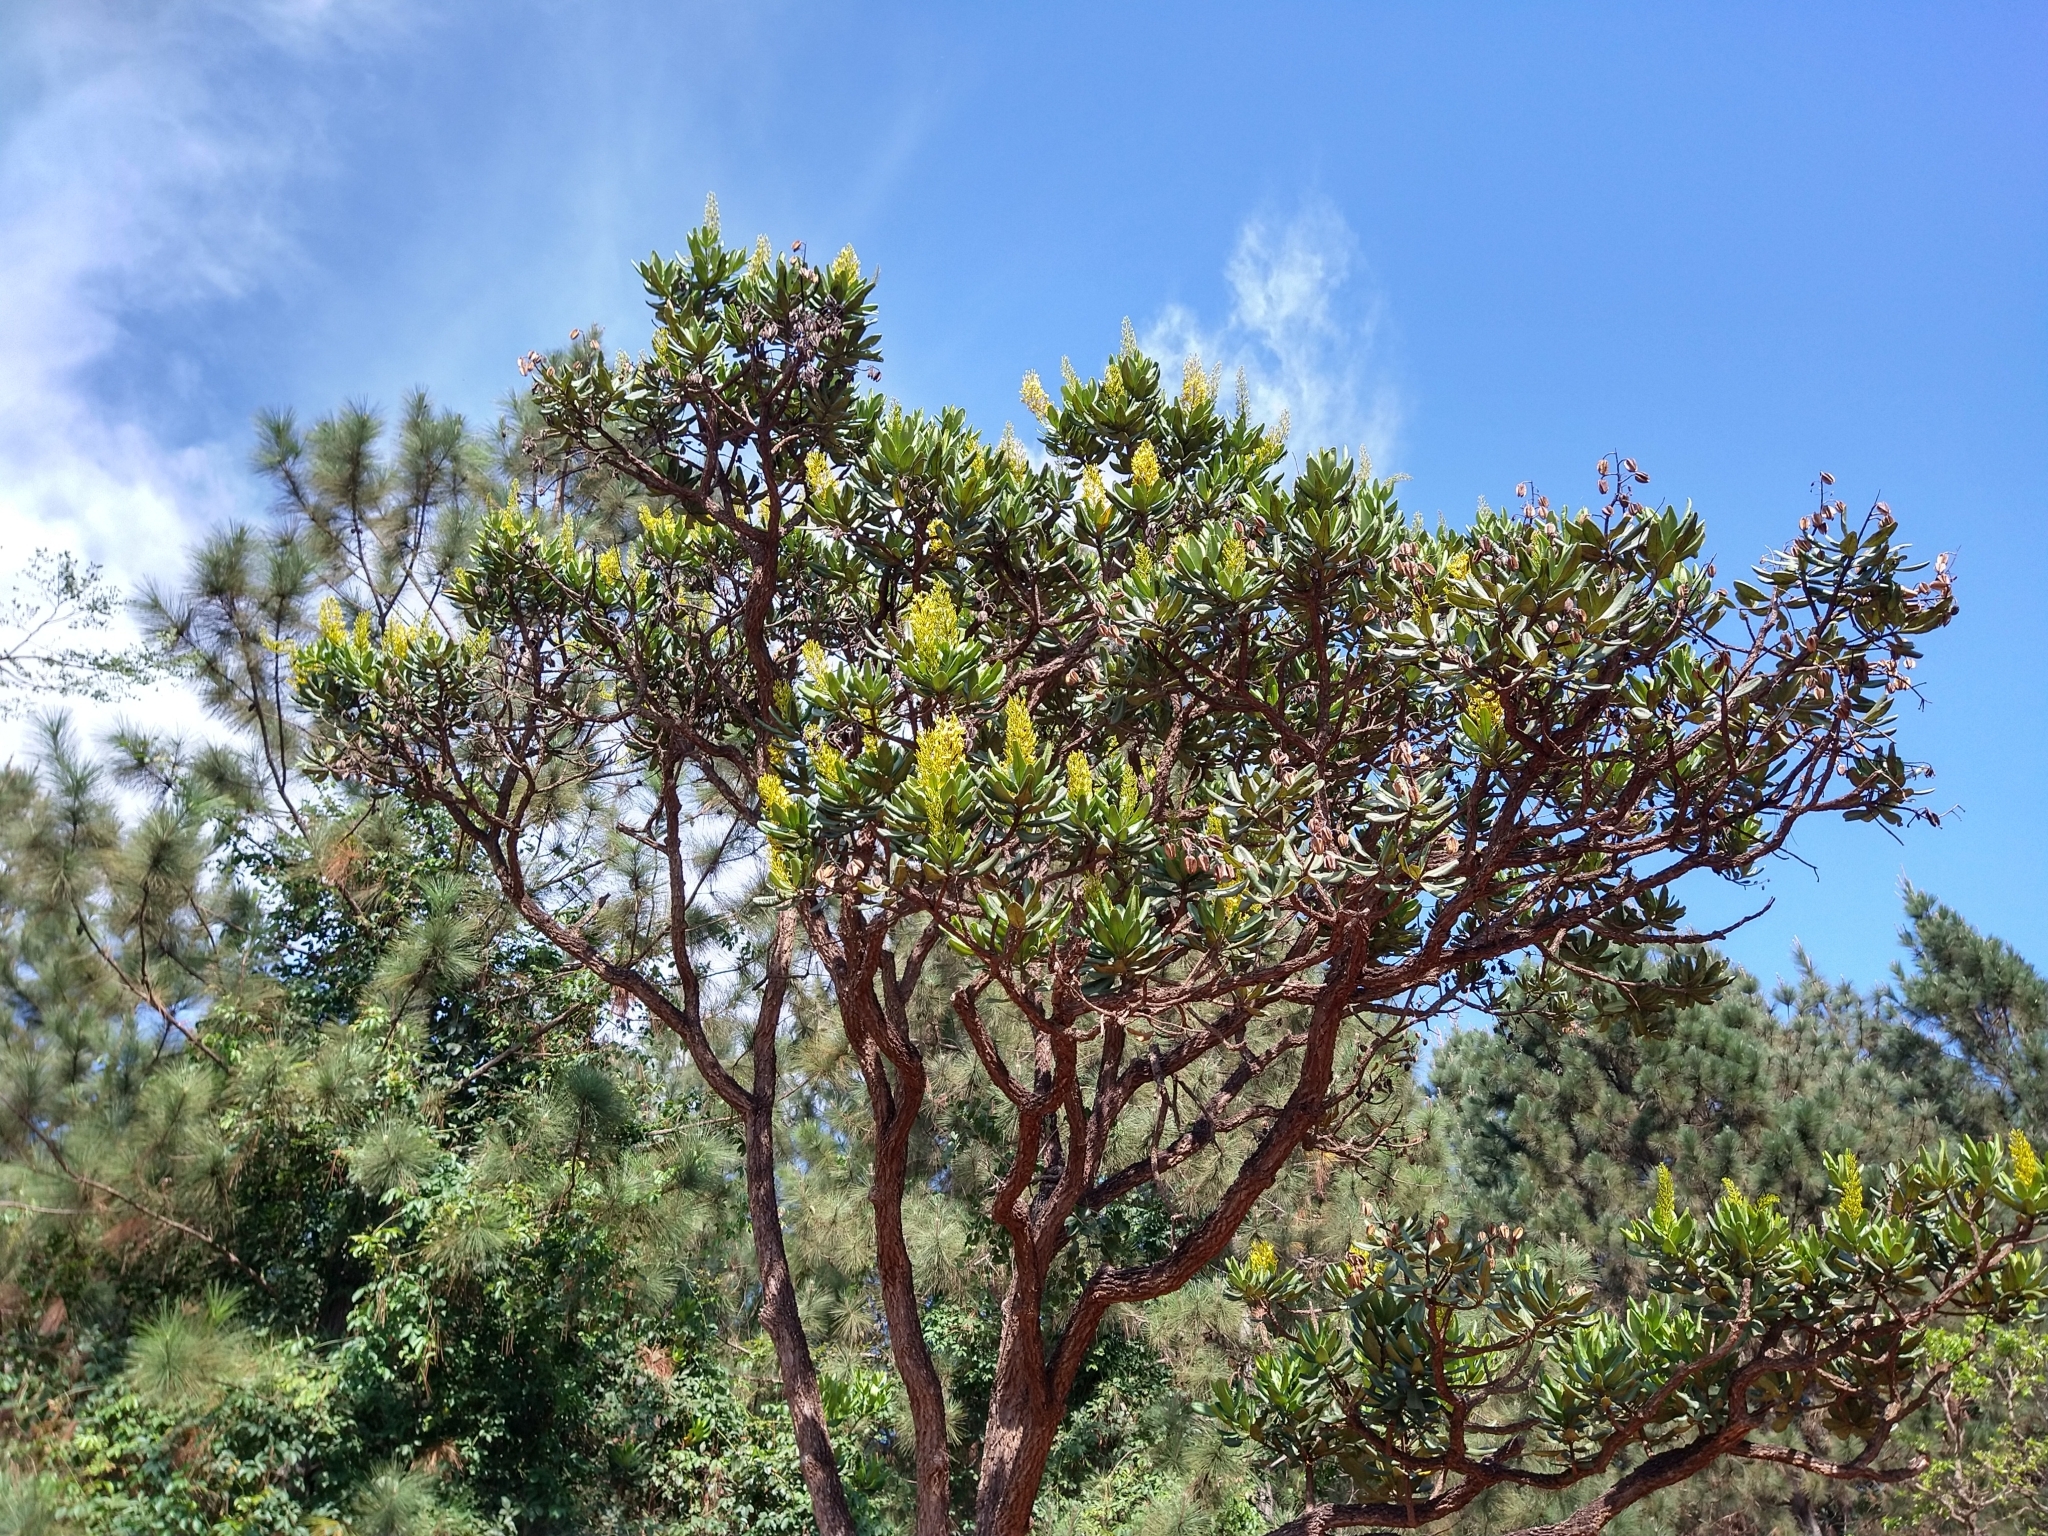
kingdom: Plantae
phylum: Tracheophyta
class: Magnoliopsida
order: Myrtales
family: Vochysiaceae
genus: Vochysia
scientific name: Vochysia thyrsoidea
